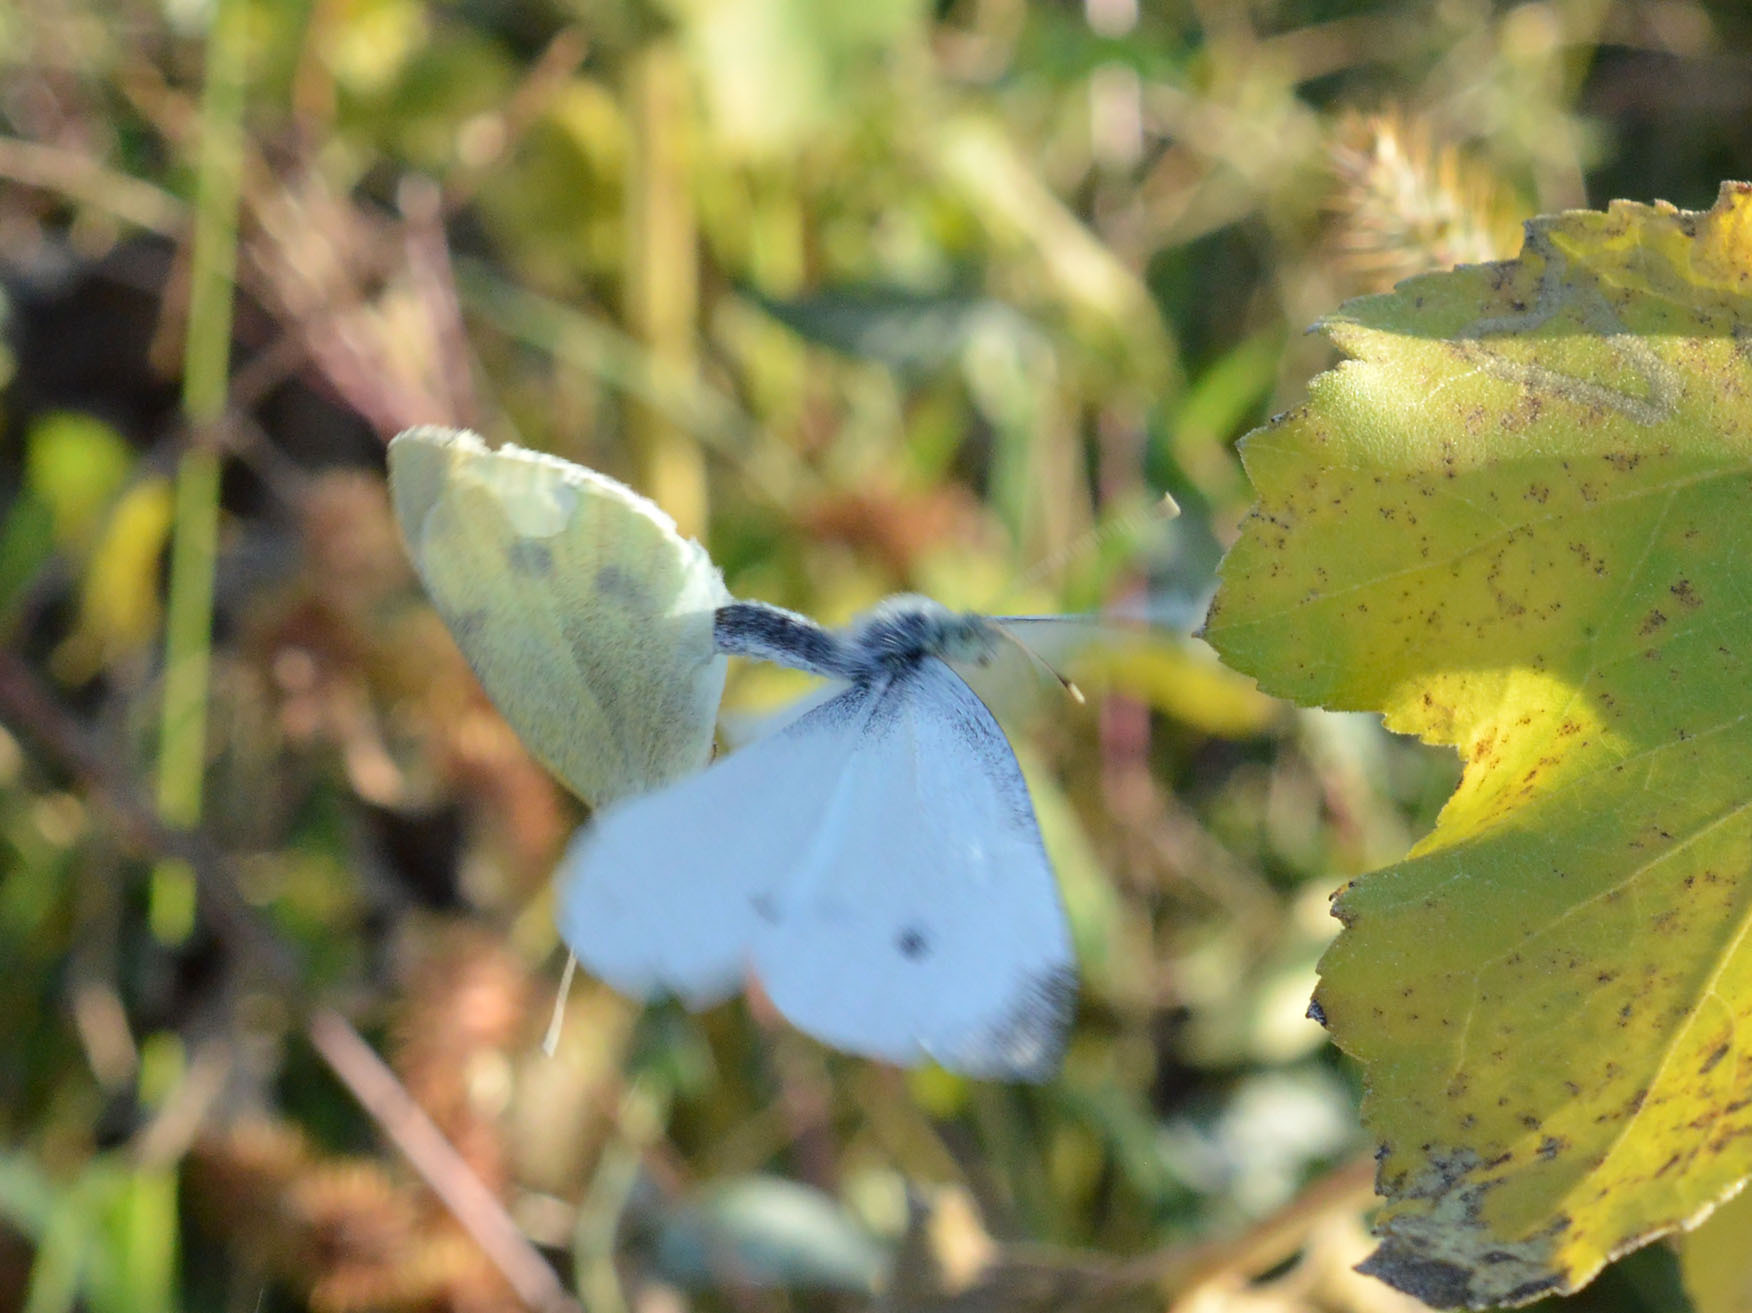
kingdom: Animalia
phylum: Arthropoda
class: Insecta
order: Lepidoptera
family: Pieridae
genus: Pieris
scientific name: Pieris rapae
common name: Small white
